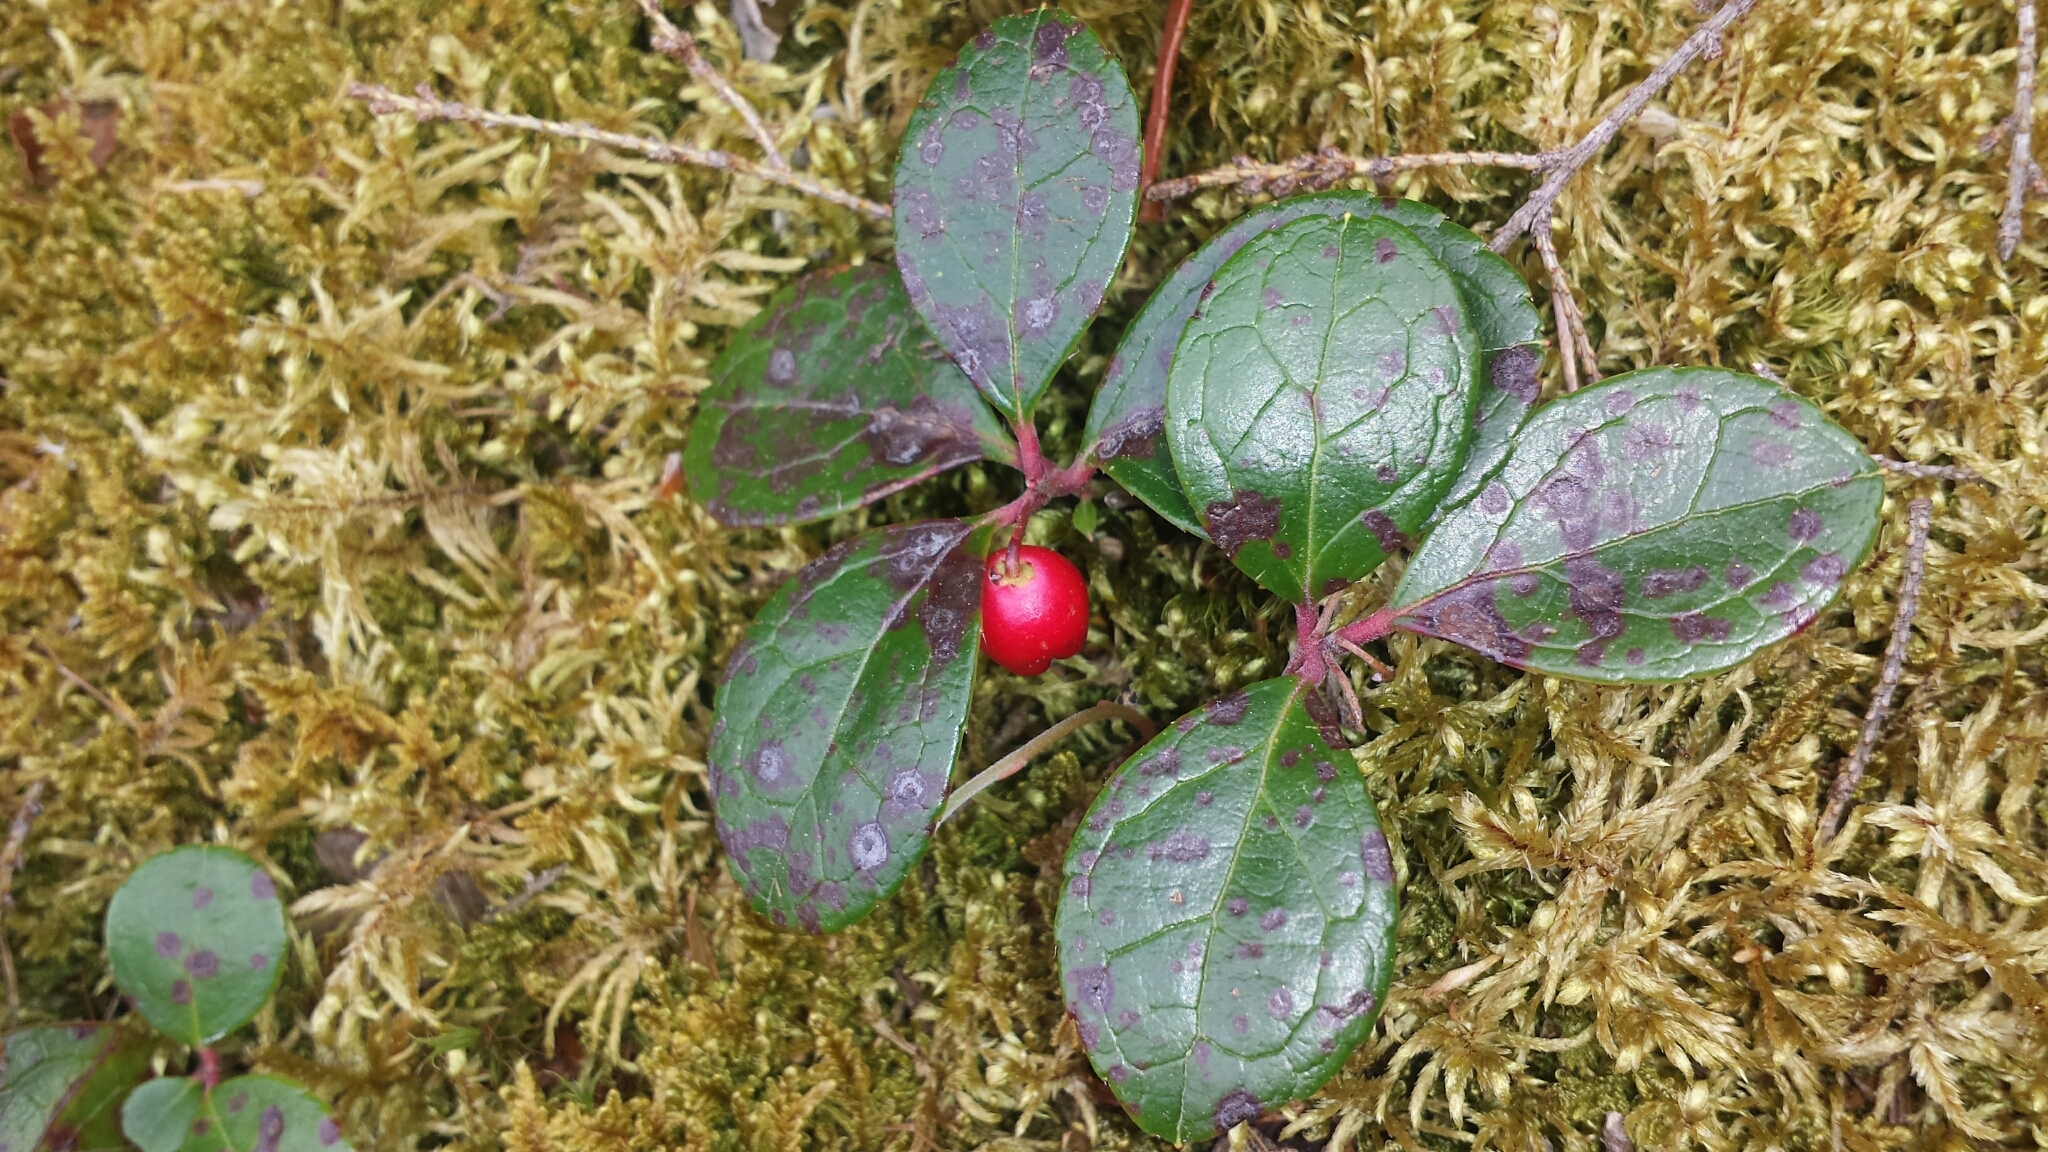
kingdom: Plantae
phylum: Tracheophyta
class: Magnoliopsida
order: Ericales
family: Ericaceae
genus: Gaultheria
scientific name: Gaultheria procumbens
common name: Checkerberry
